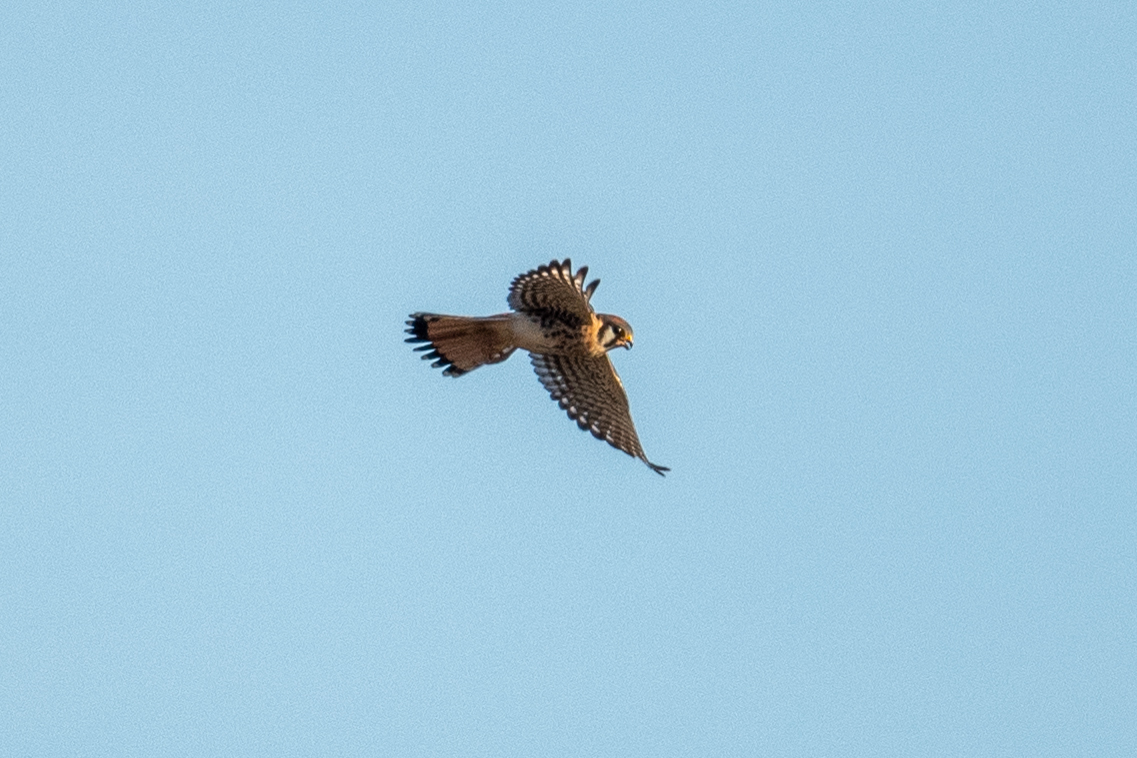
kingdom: Animalia
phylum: Chordata
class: Aves
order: Falconiformes
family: Falconidae
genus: Falco
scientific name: Falco sparverius
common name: American kestrel
